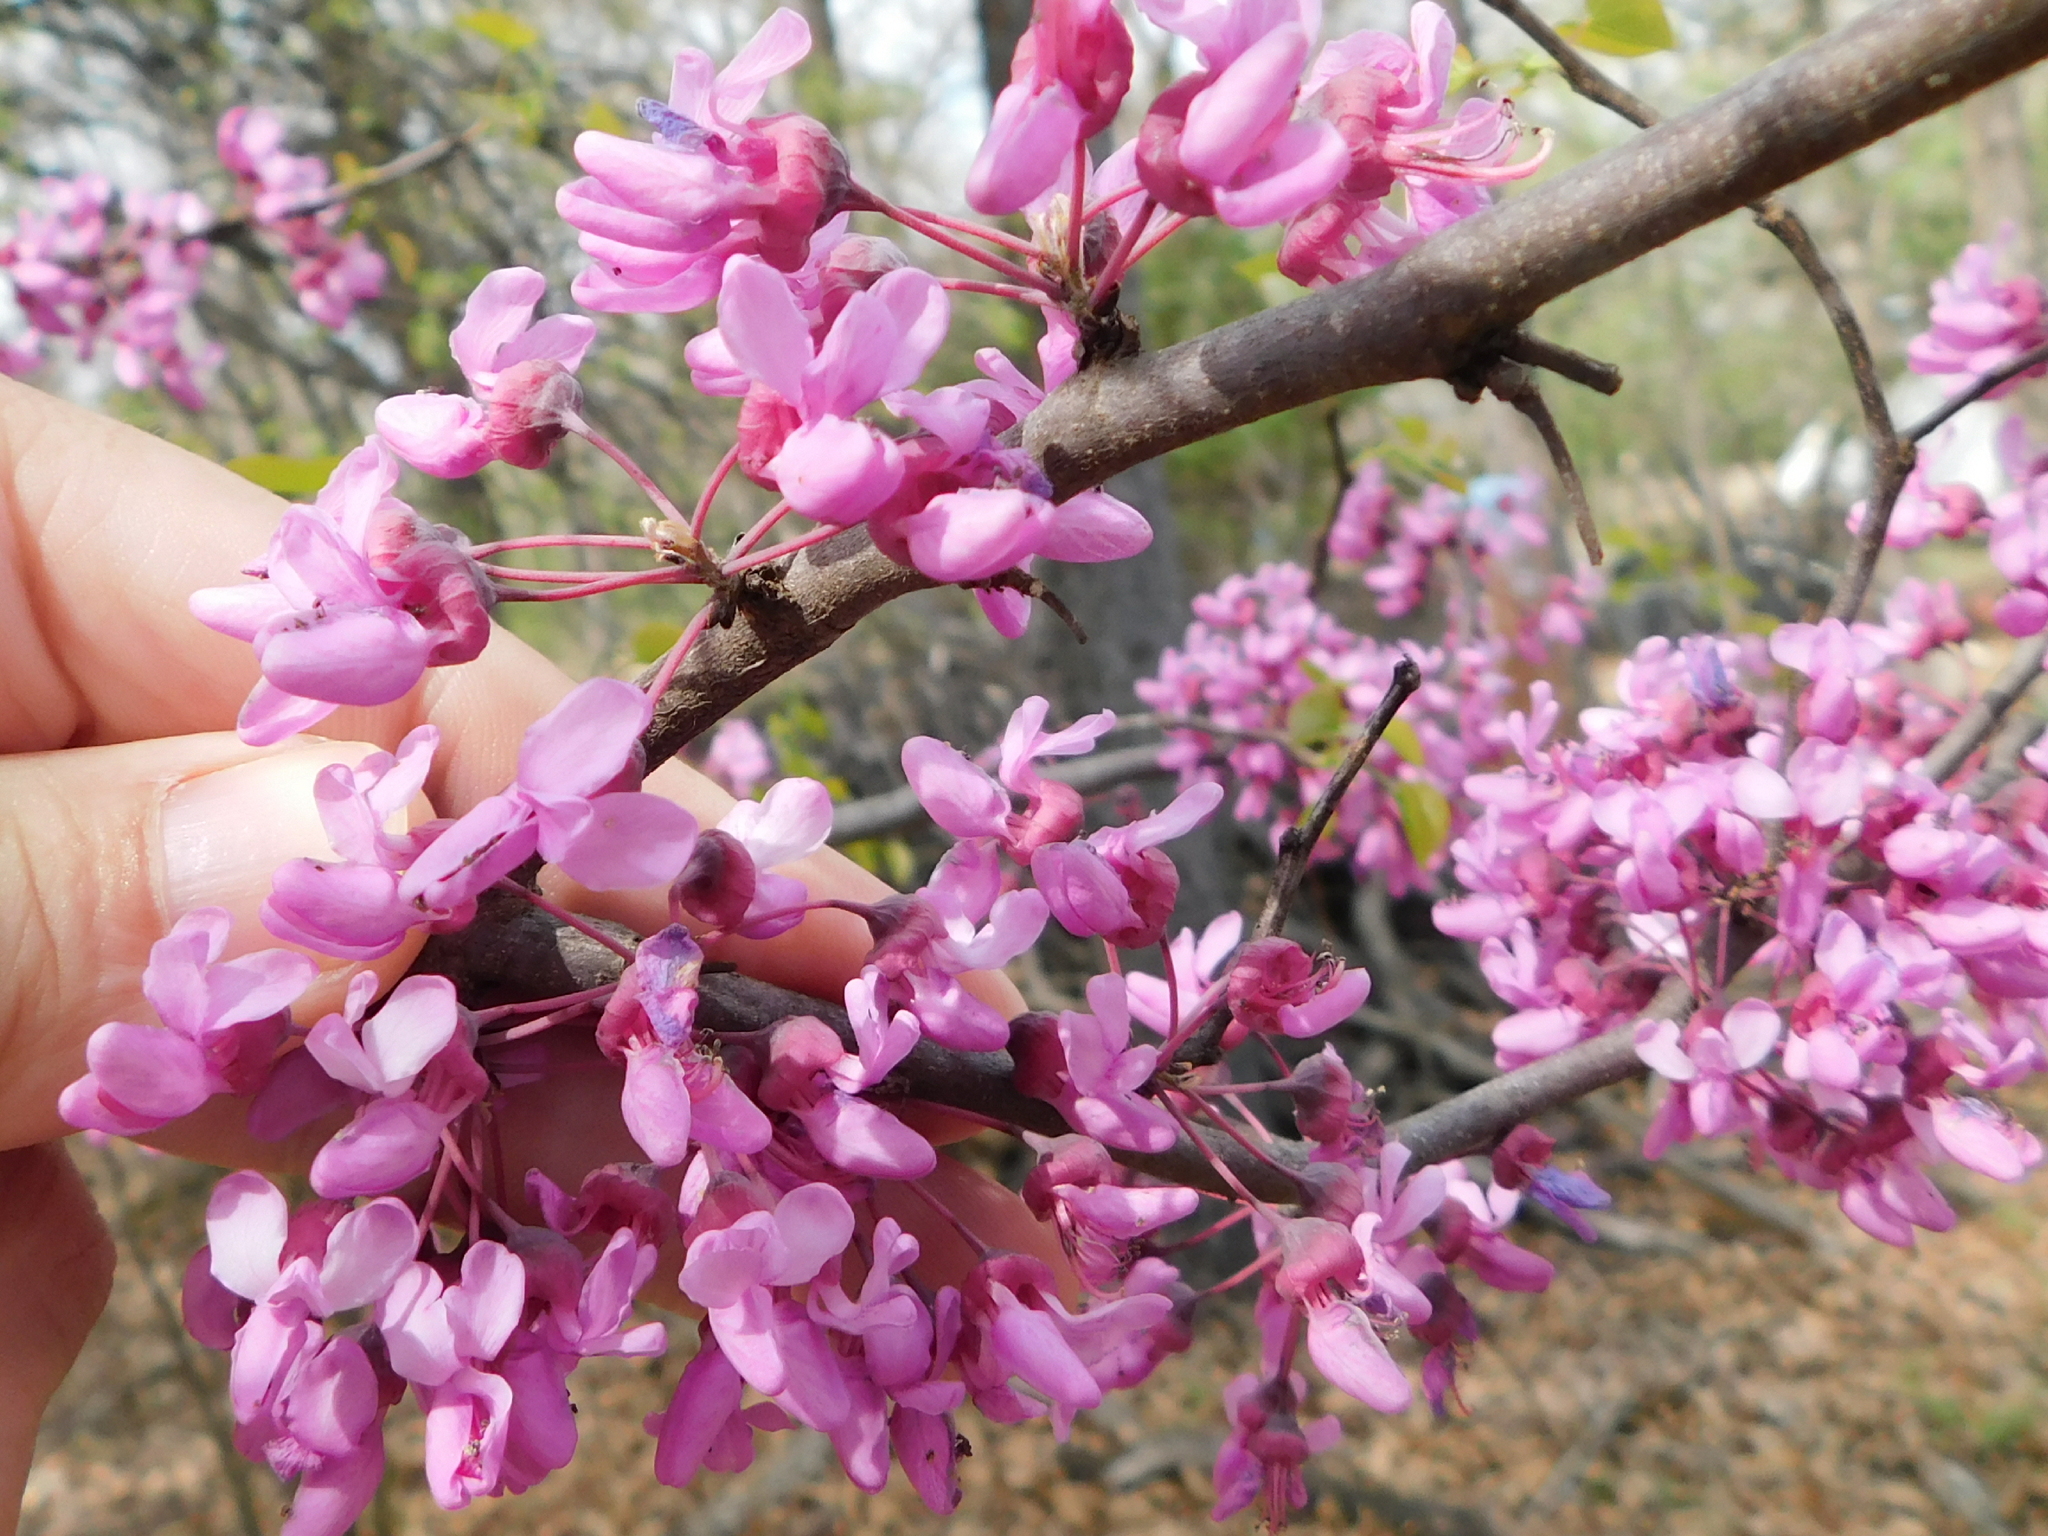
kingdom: Plantae
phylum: Tracheophyta
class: Magnoliopsida
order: Fabales
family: Fabaceae
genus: Cercis
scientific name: Cercis canadensis
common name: Eastern redbud
